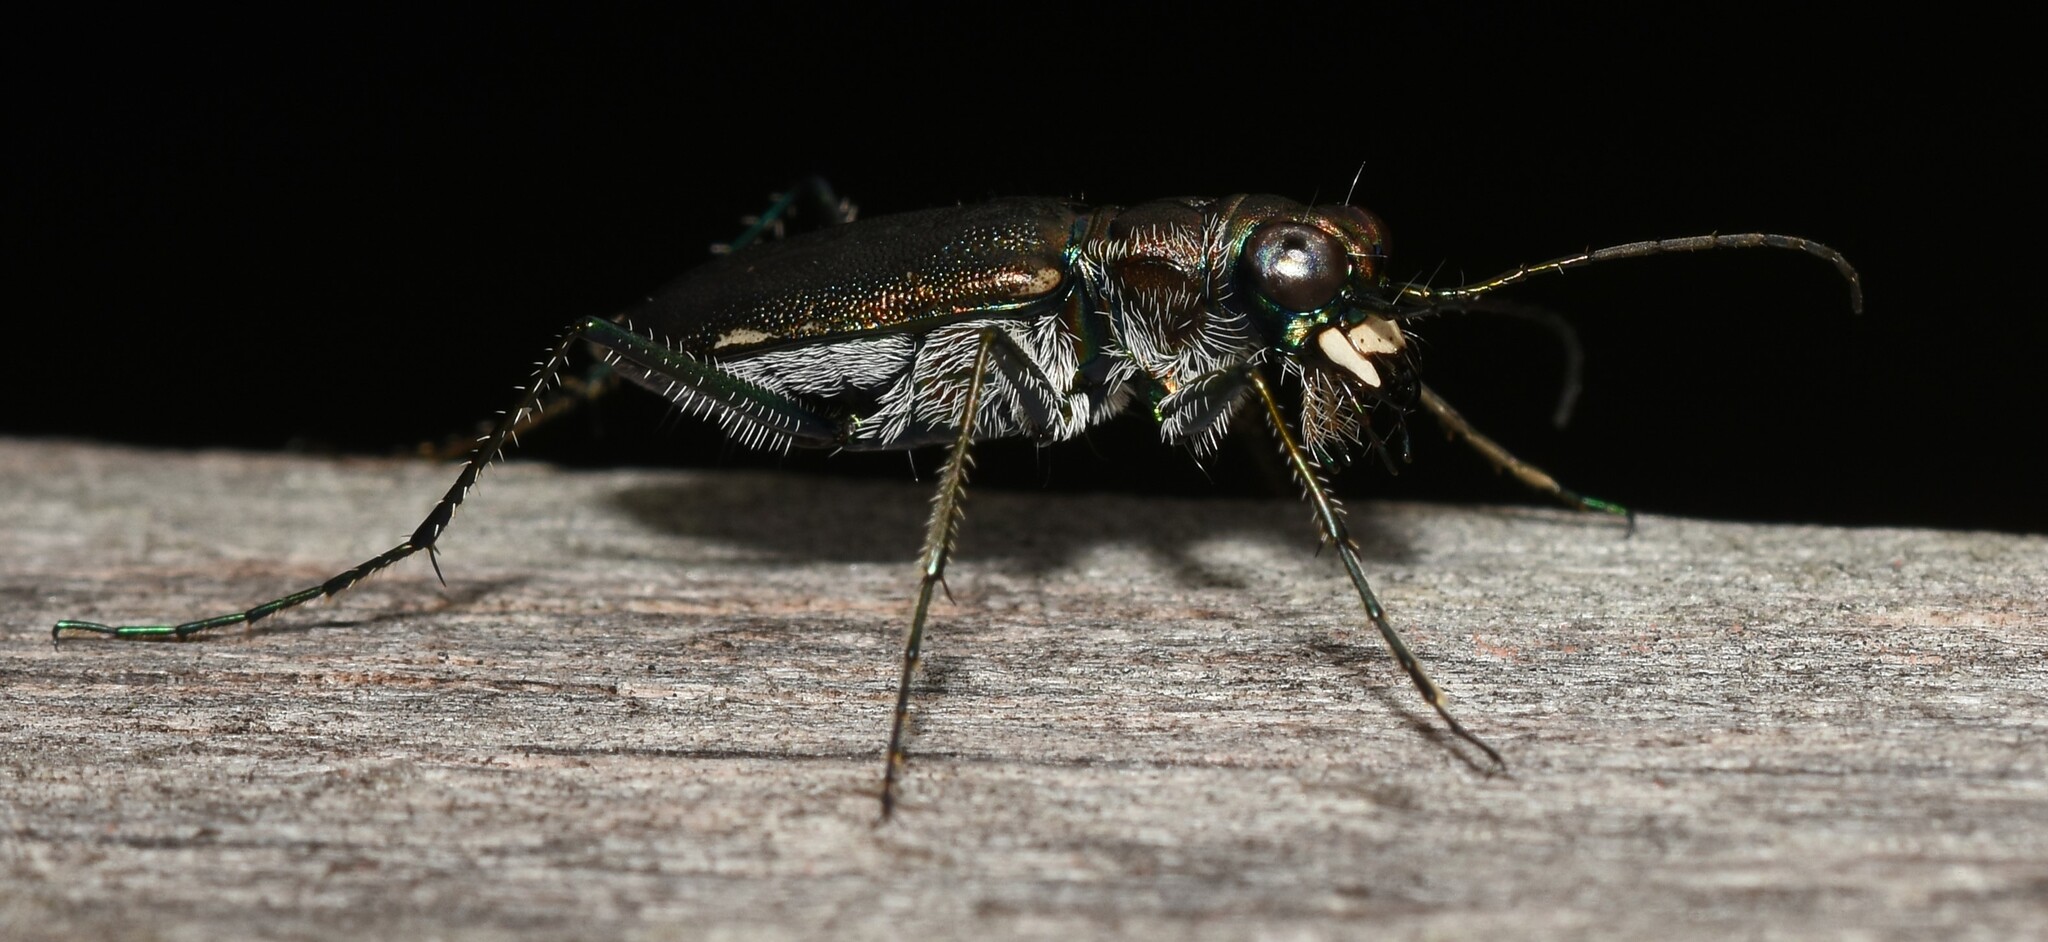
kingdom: Animalia
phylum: Arthropoda
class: Insecta
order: Coleoptera
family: Carabidae
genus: Cicindela
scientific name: Cicindela punctulata
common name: Punctured tiger beetle
